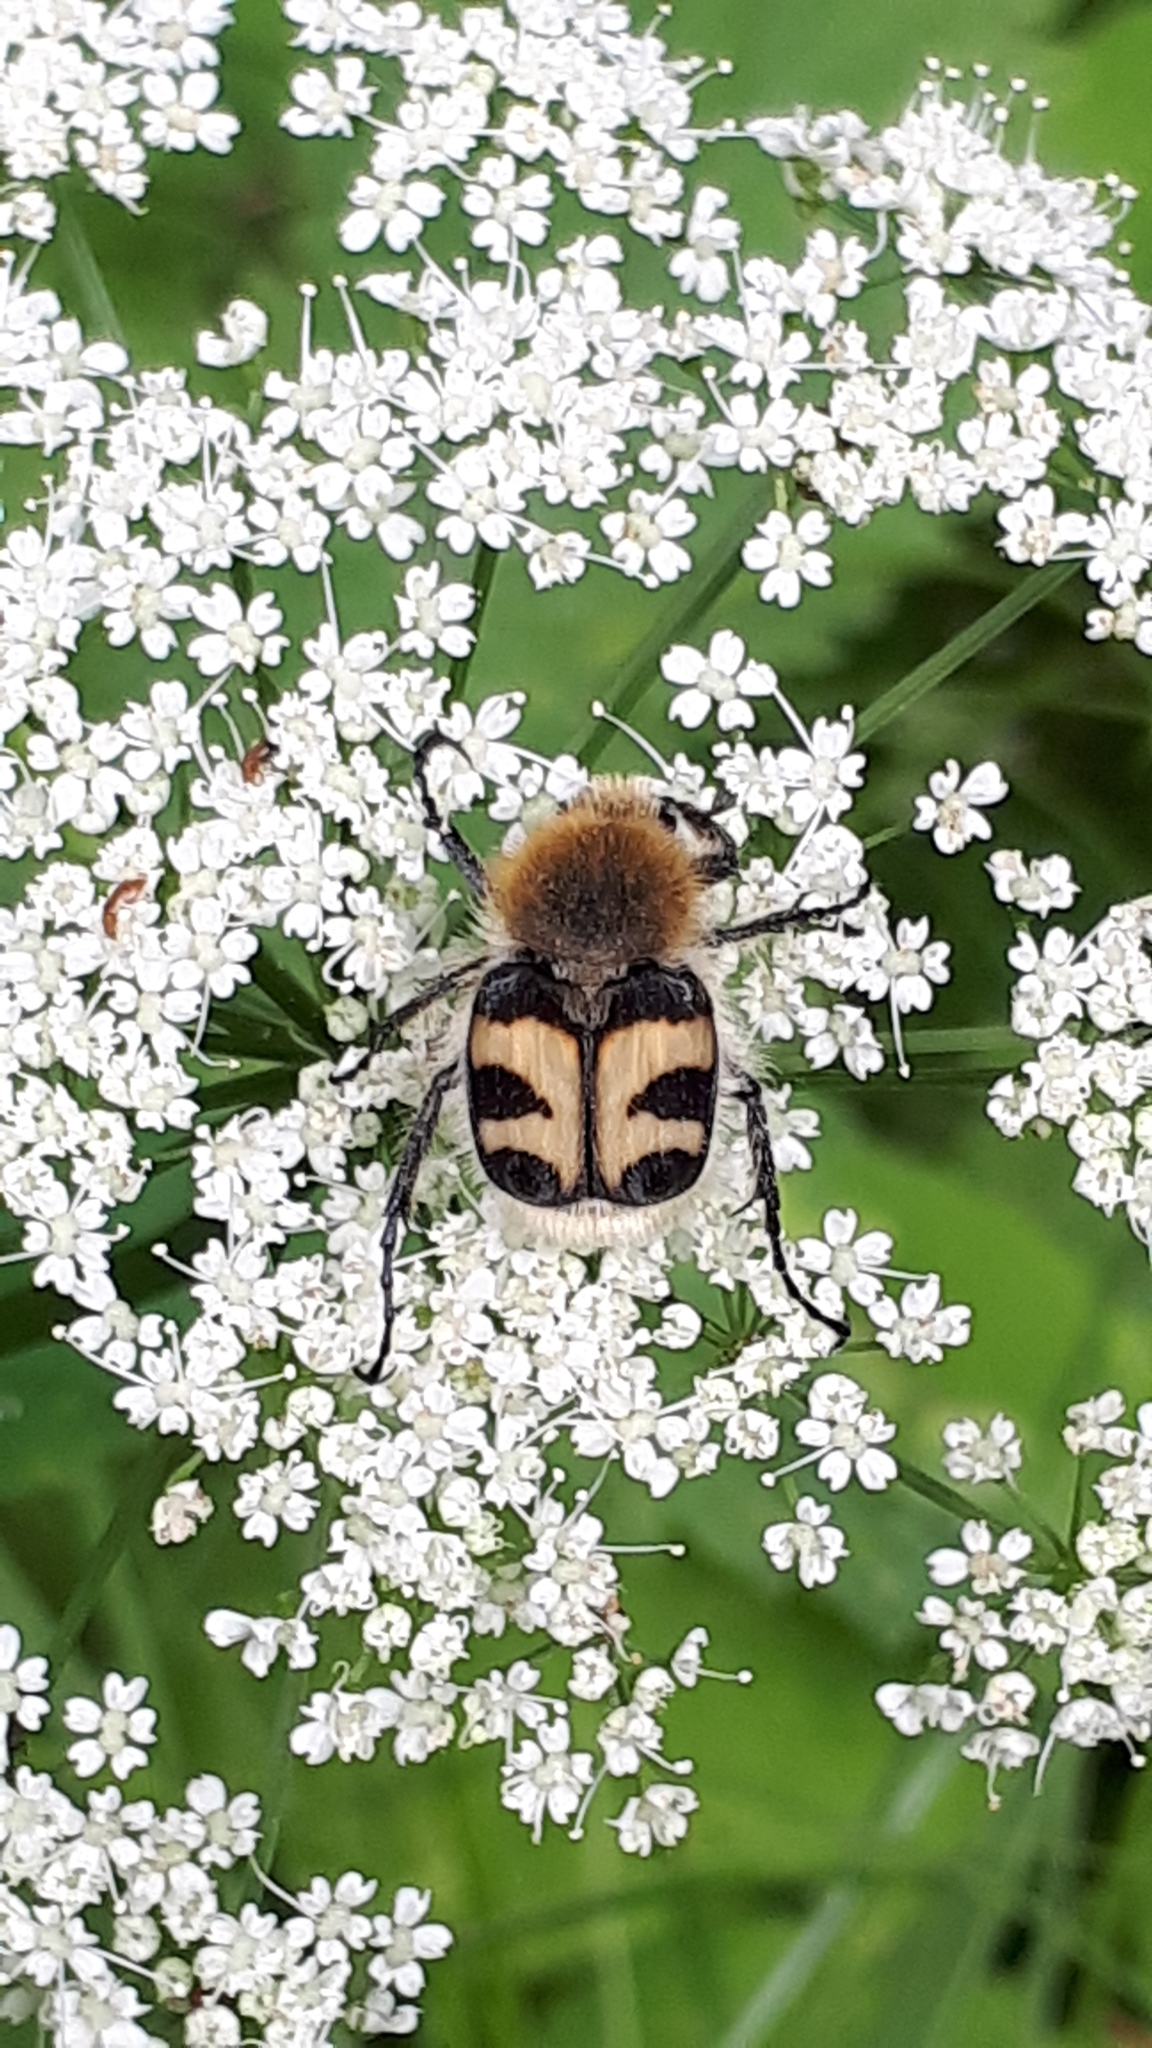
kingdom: Animalia
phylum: Arthropoda
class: Insecta
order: Coleoptera
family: Scarabaeidae
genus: Trichius
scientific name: Trichius fasciatus
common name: Bee beetle
